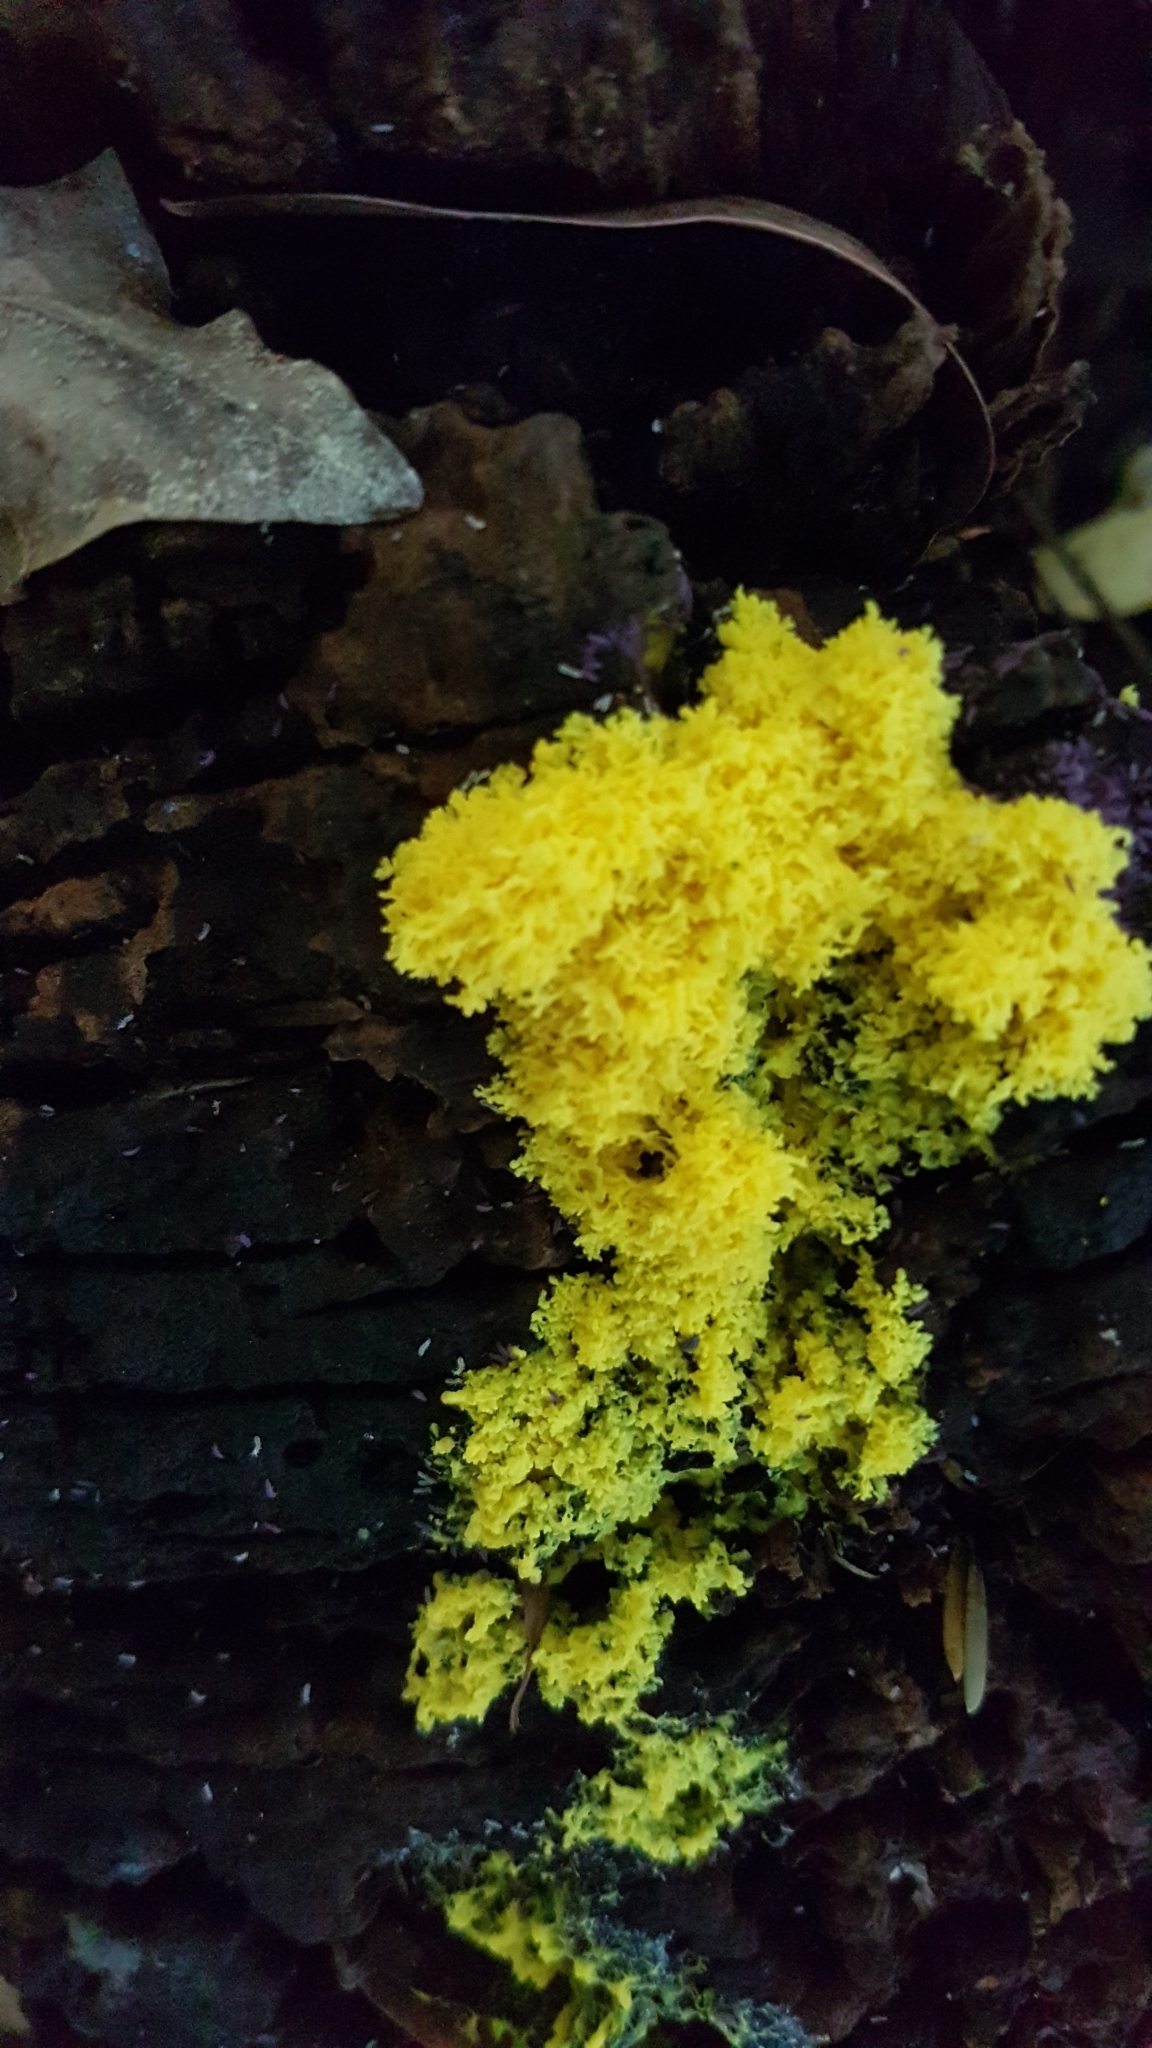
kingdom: Protozoa
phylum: Mycetozoa
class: Myxomycetes
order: Physarales
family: Physaraceae
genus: Fuligo
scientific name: Fuligo septica
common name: Dog vomit slime mold
